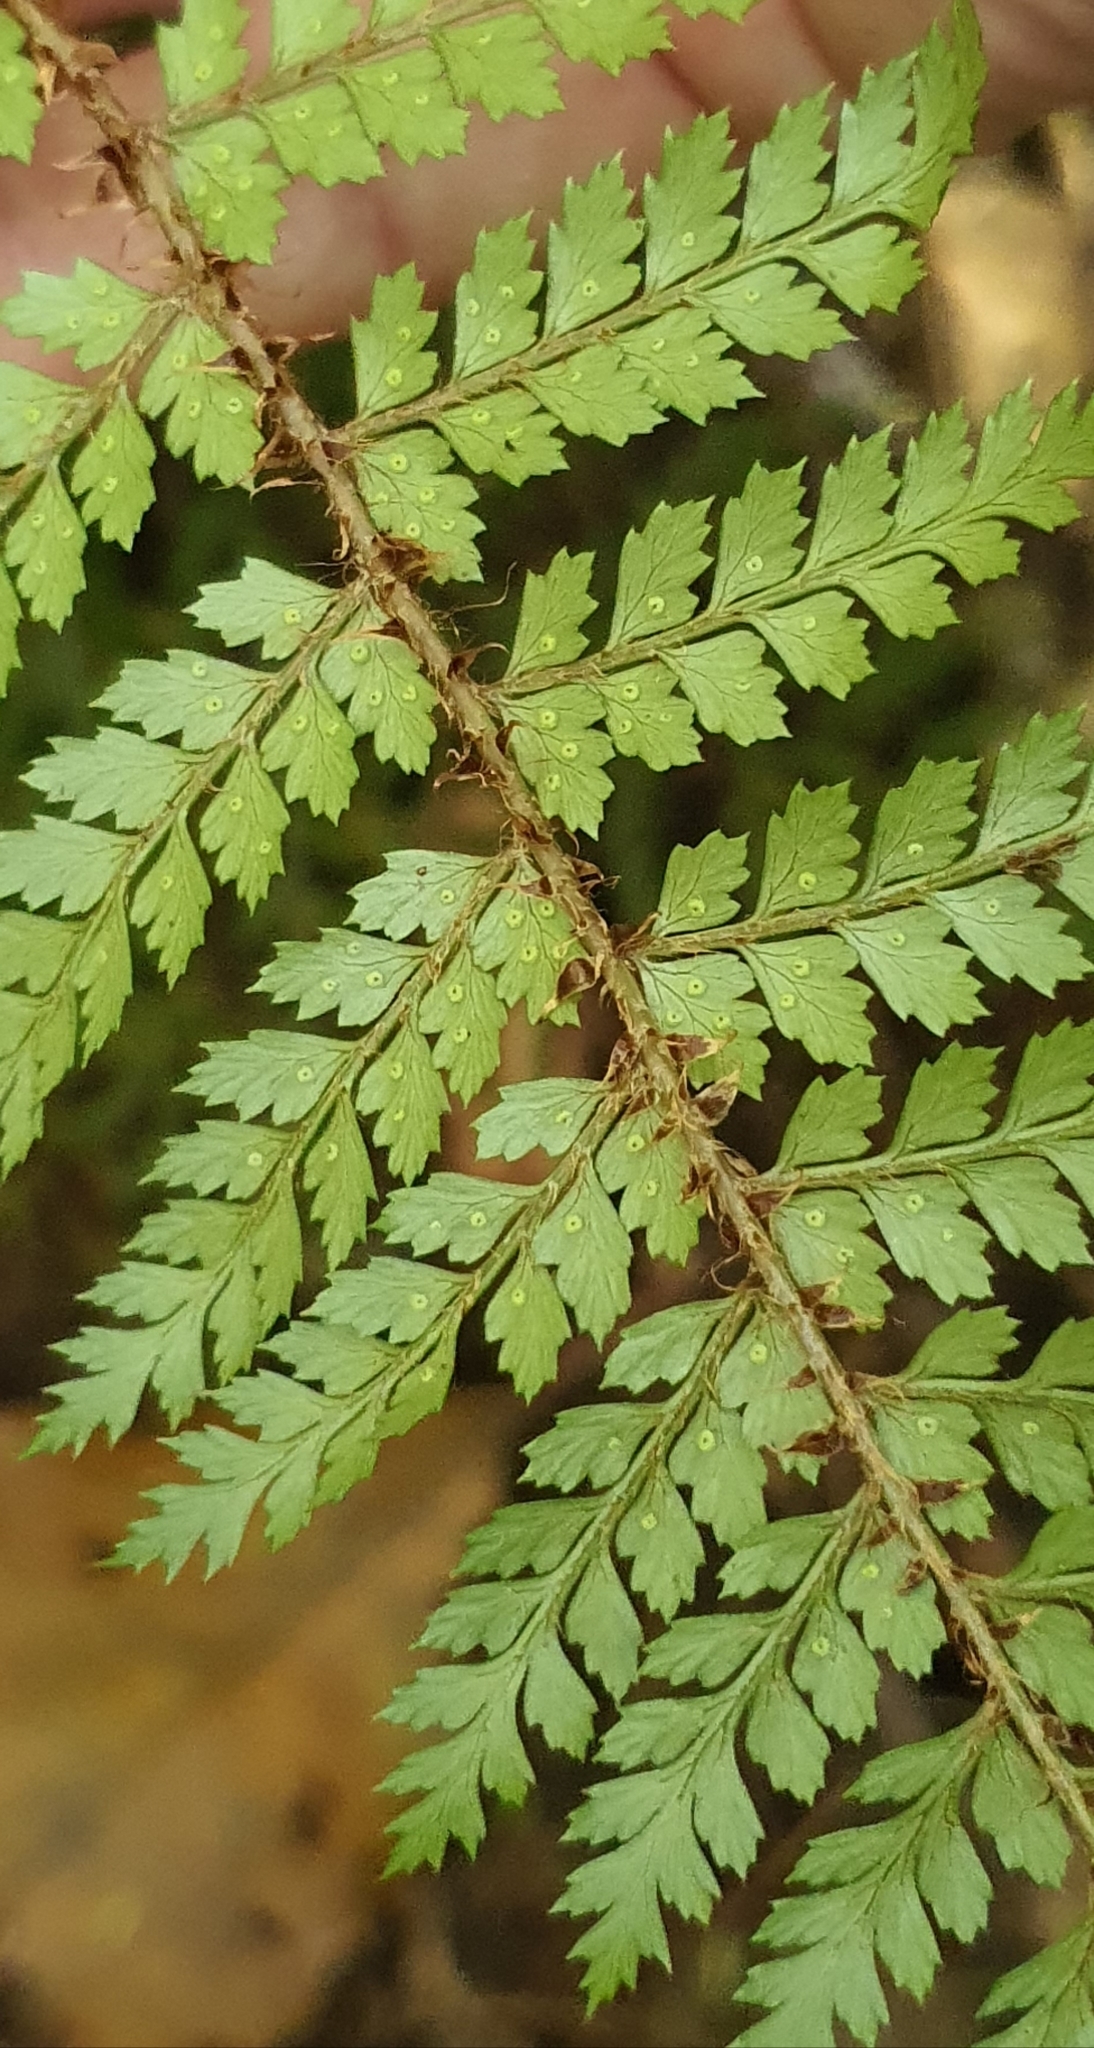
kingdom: Plantae
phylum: Tracheophyta
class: Polypodiopsida
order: Polypodiales
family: Dryopteridaceae
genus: Polystichum
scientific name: Polystichum vestitum
